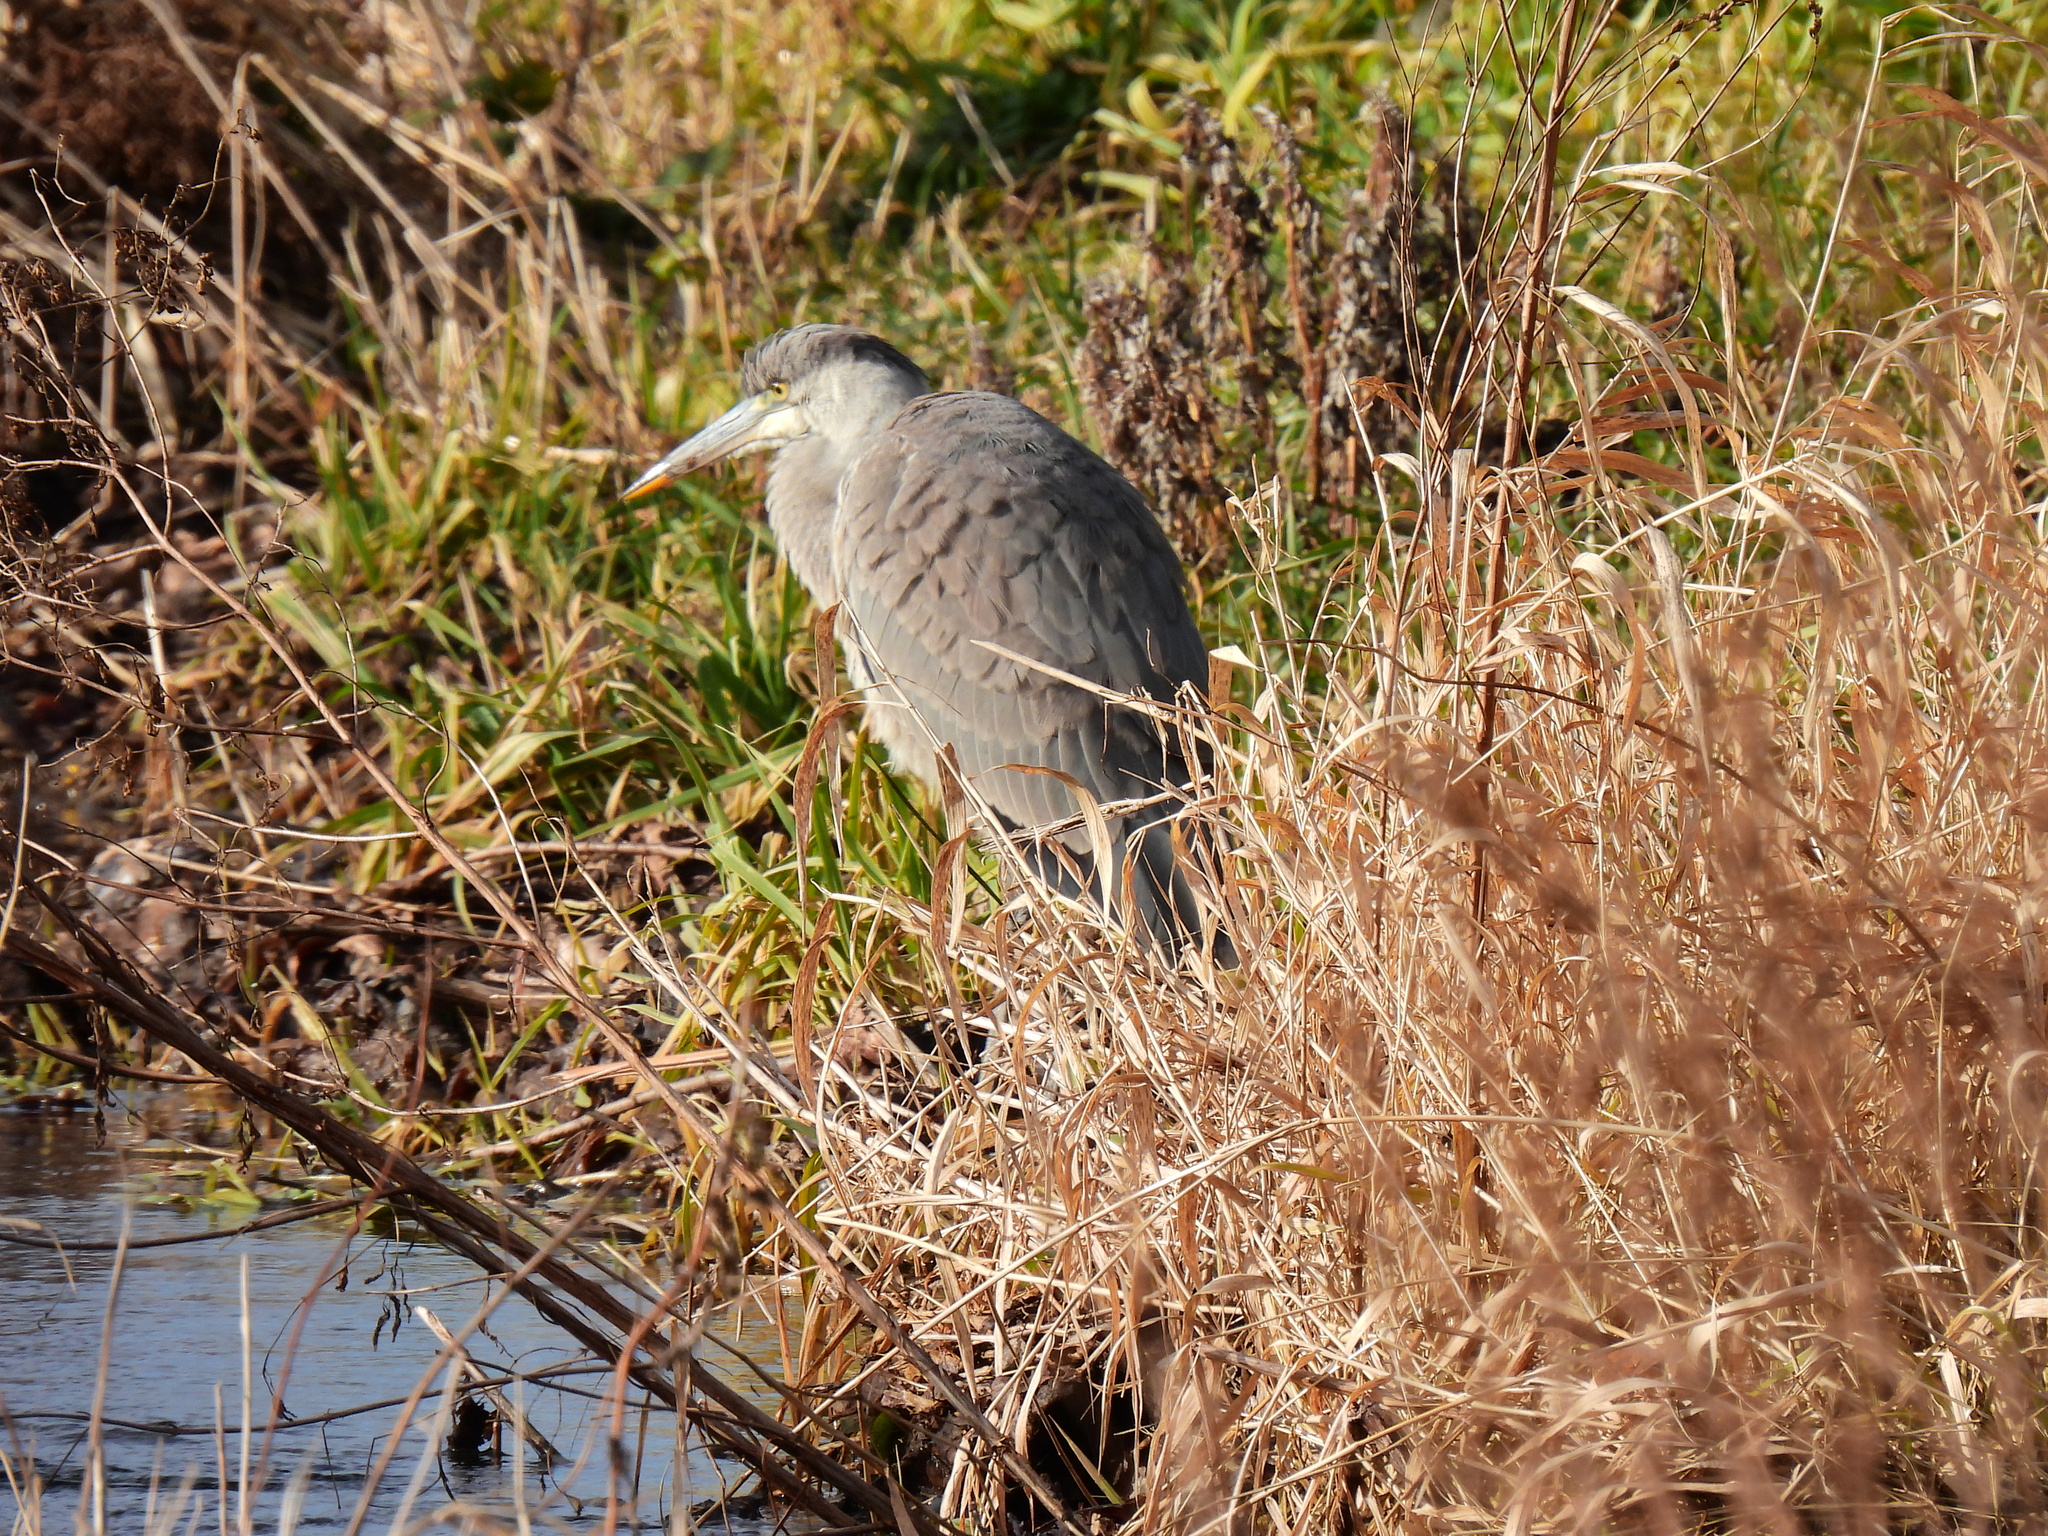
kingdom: Animalia
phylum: Chordata
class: Aves
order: Pelecaniformes
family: Ardeidae
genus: Ardea
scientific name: Ardea cinerea
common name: Grey heron
